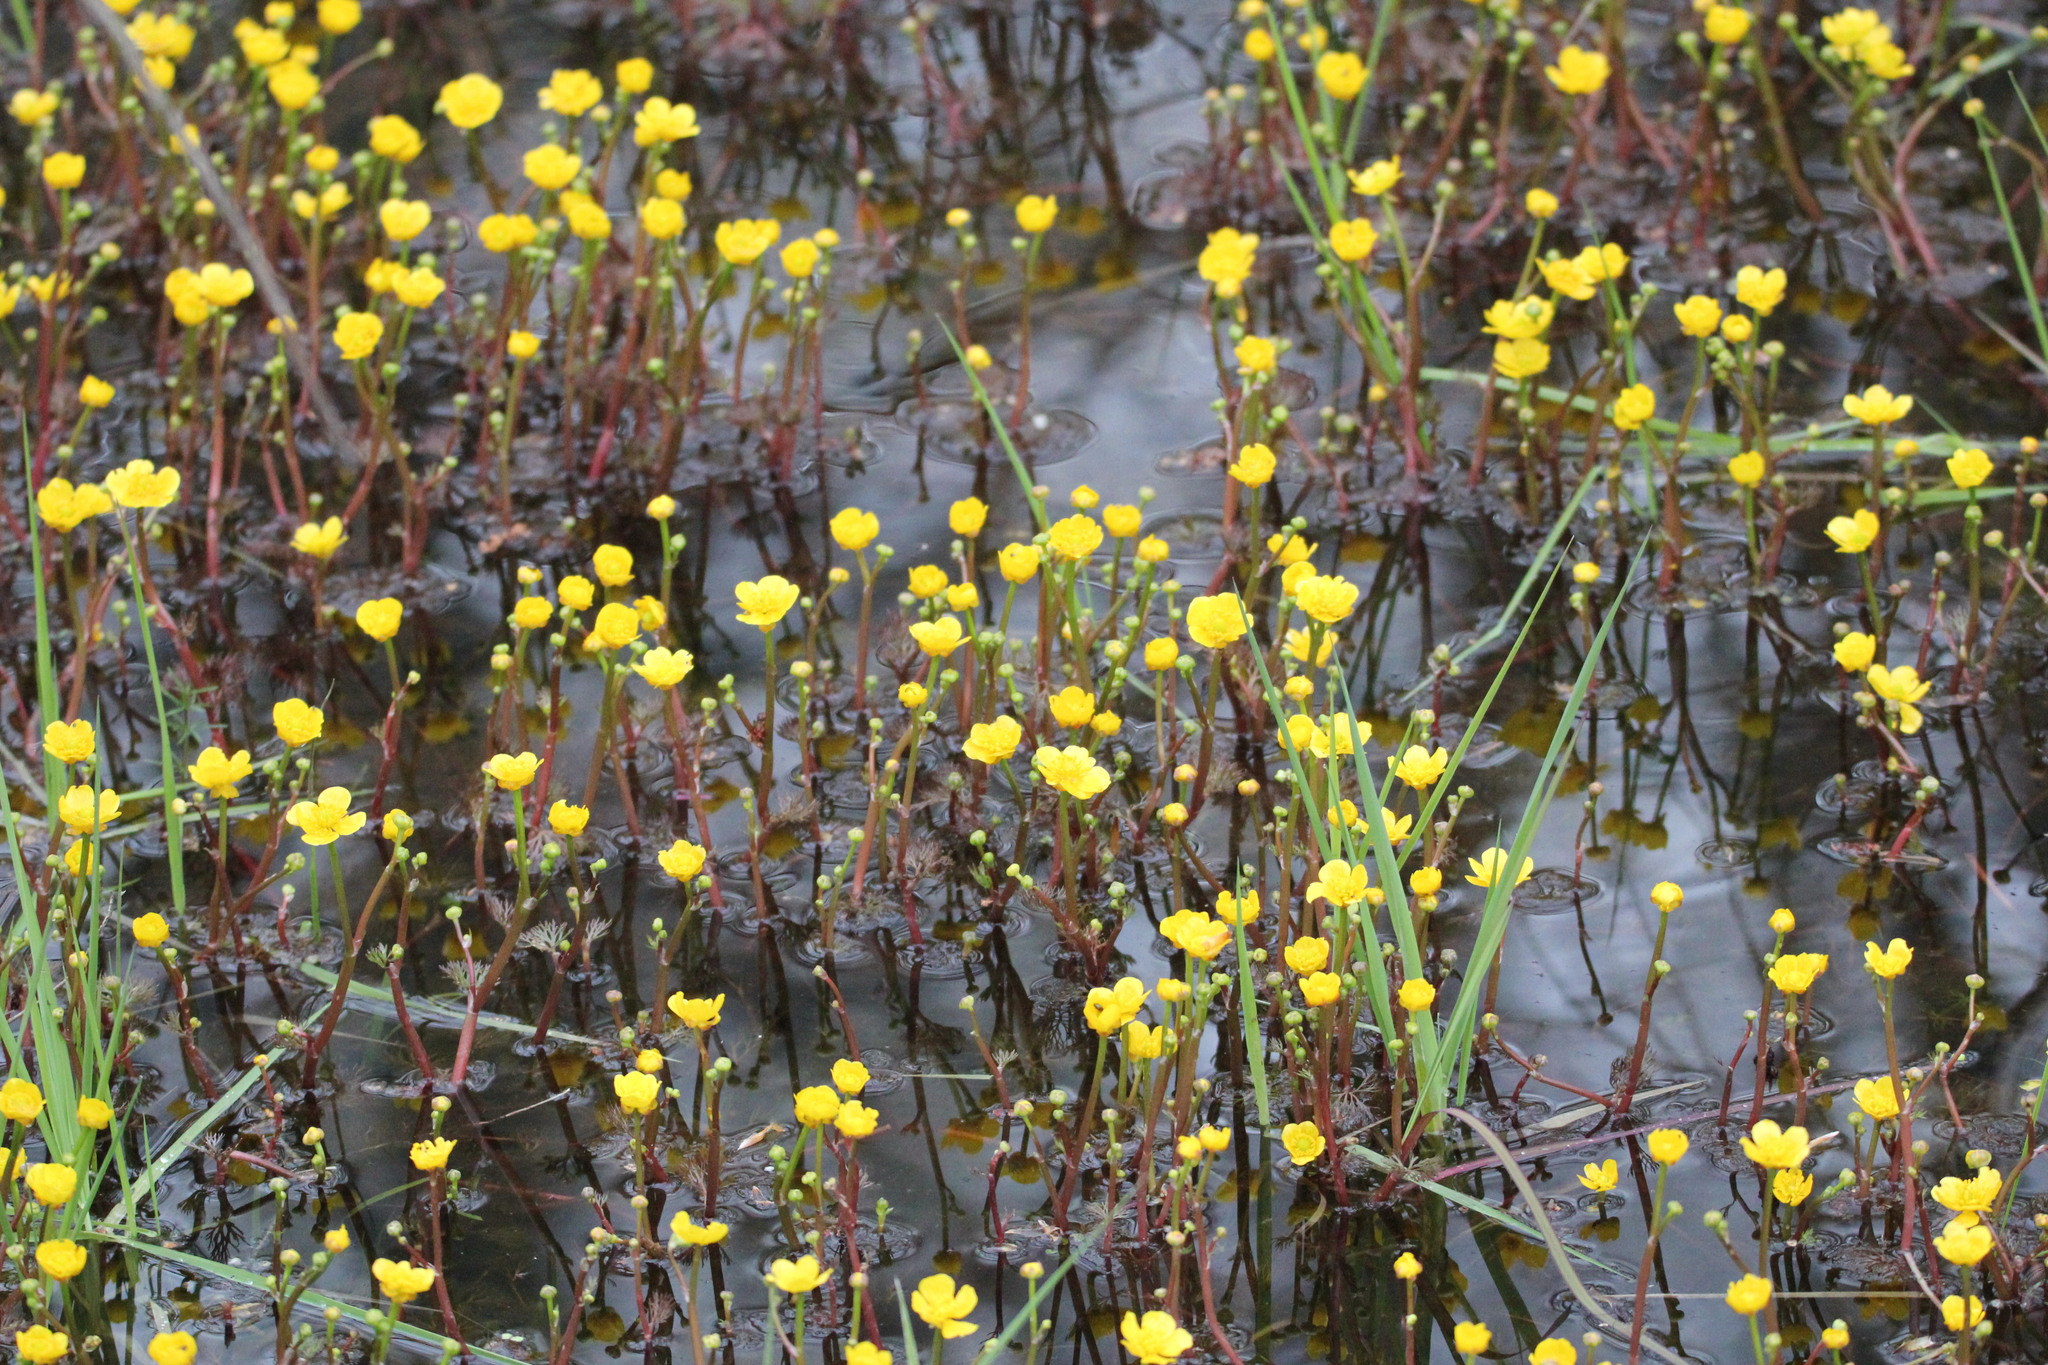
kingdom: Plantae
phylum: Tracheophyta
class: Magnoliopsida
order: Ranunculales
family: Ranunculaceae
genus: Ranunculus
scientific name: Ranunculus flabellaris
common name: Yellow water-crowfoot
